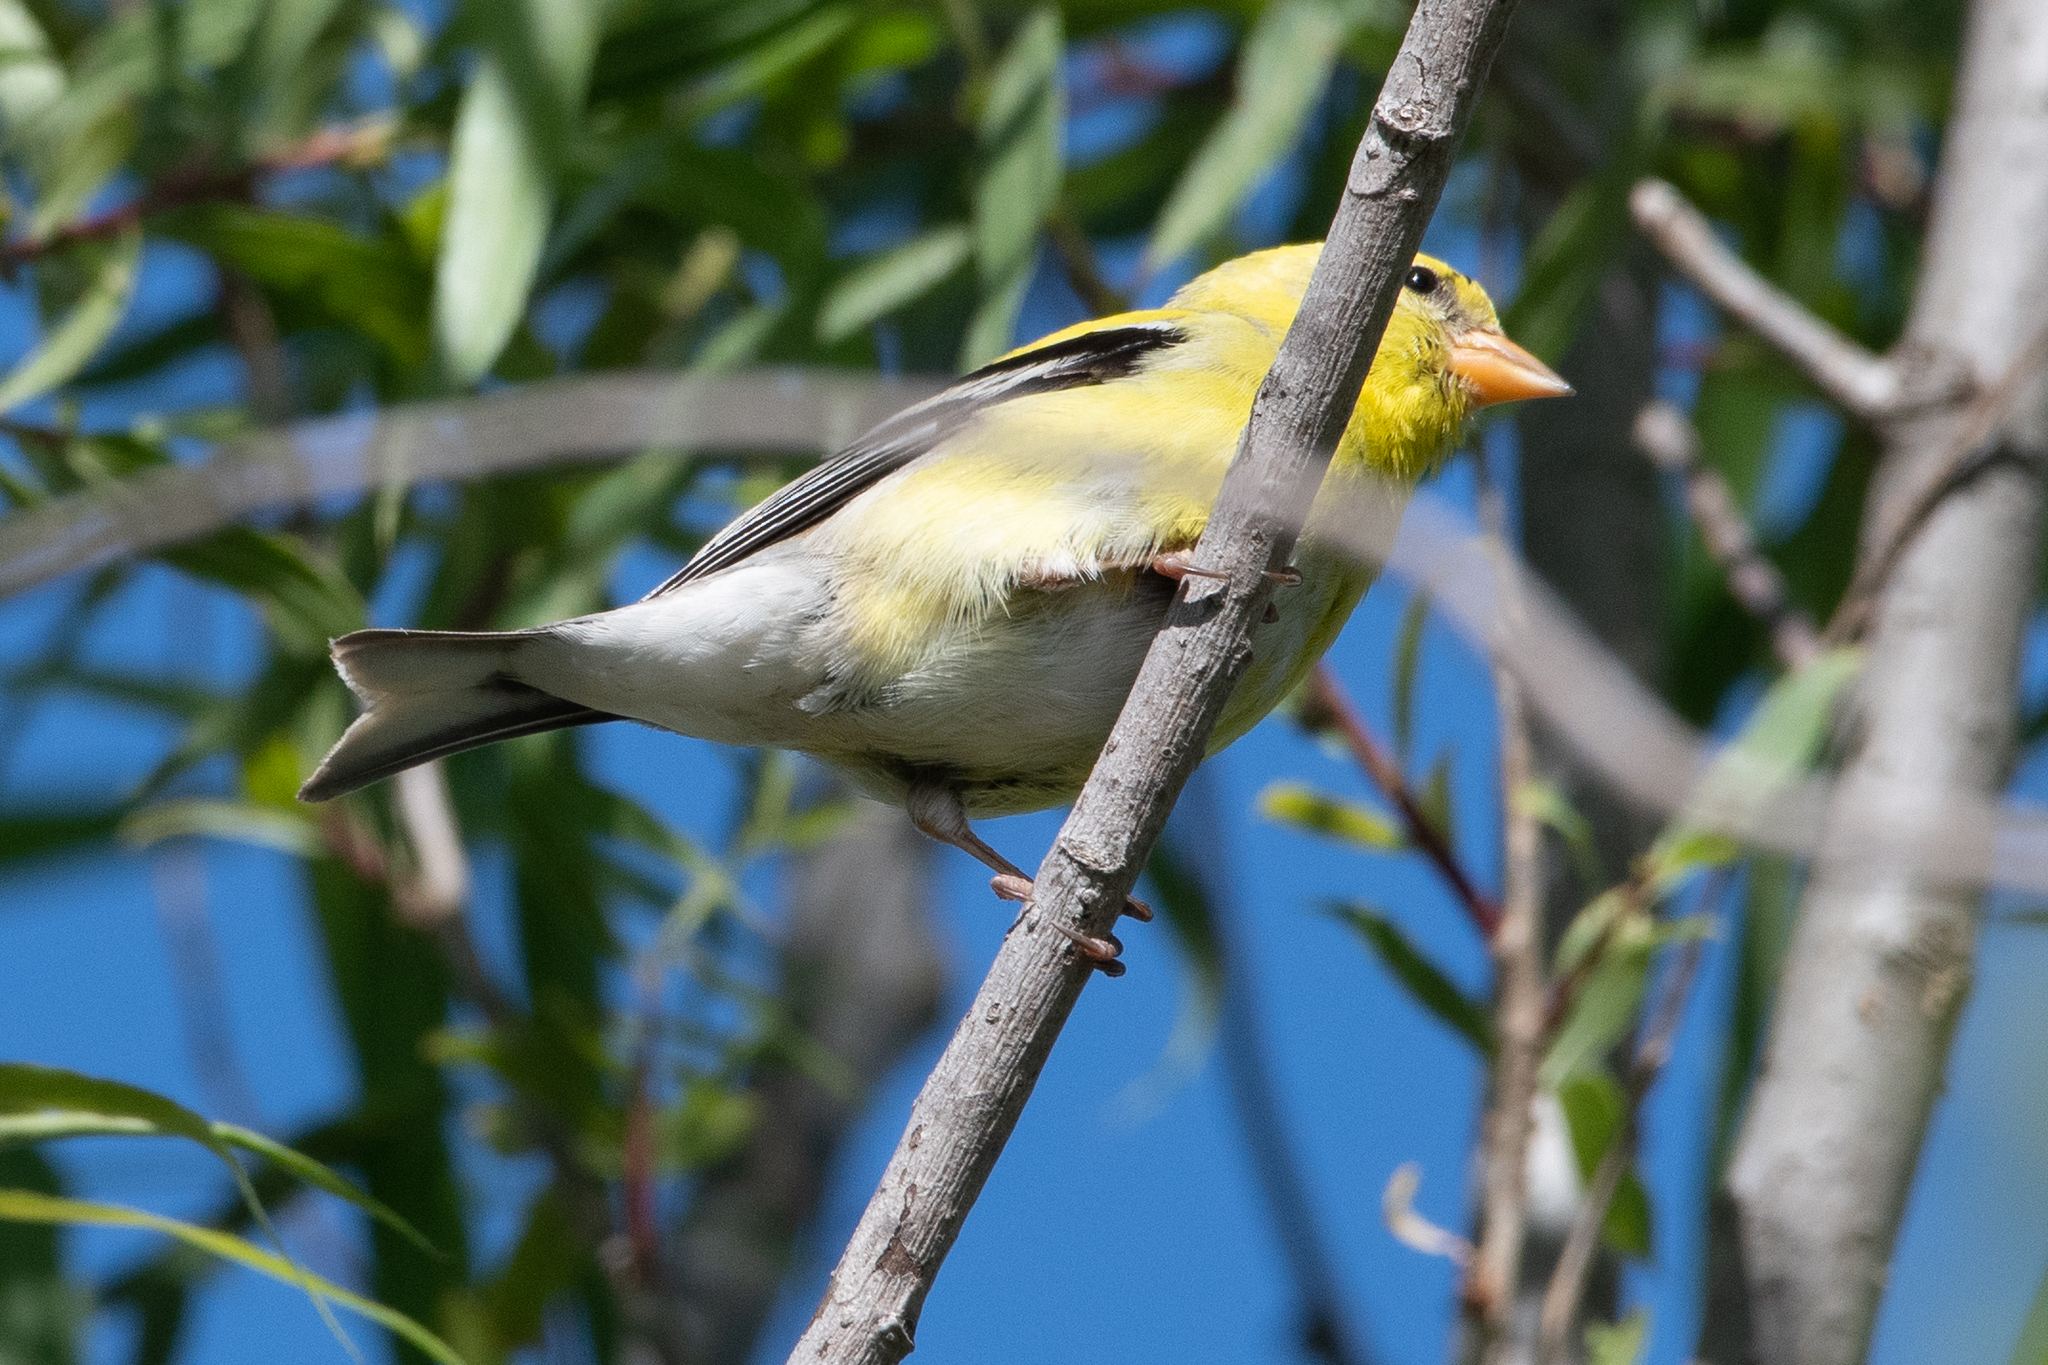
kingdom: Animalia
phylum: Chordata
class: Aves
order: Passeriformes
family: Fringillidae
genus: Spinus
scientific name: Spinus tristis
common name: American goldfinch
